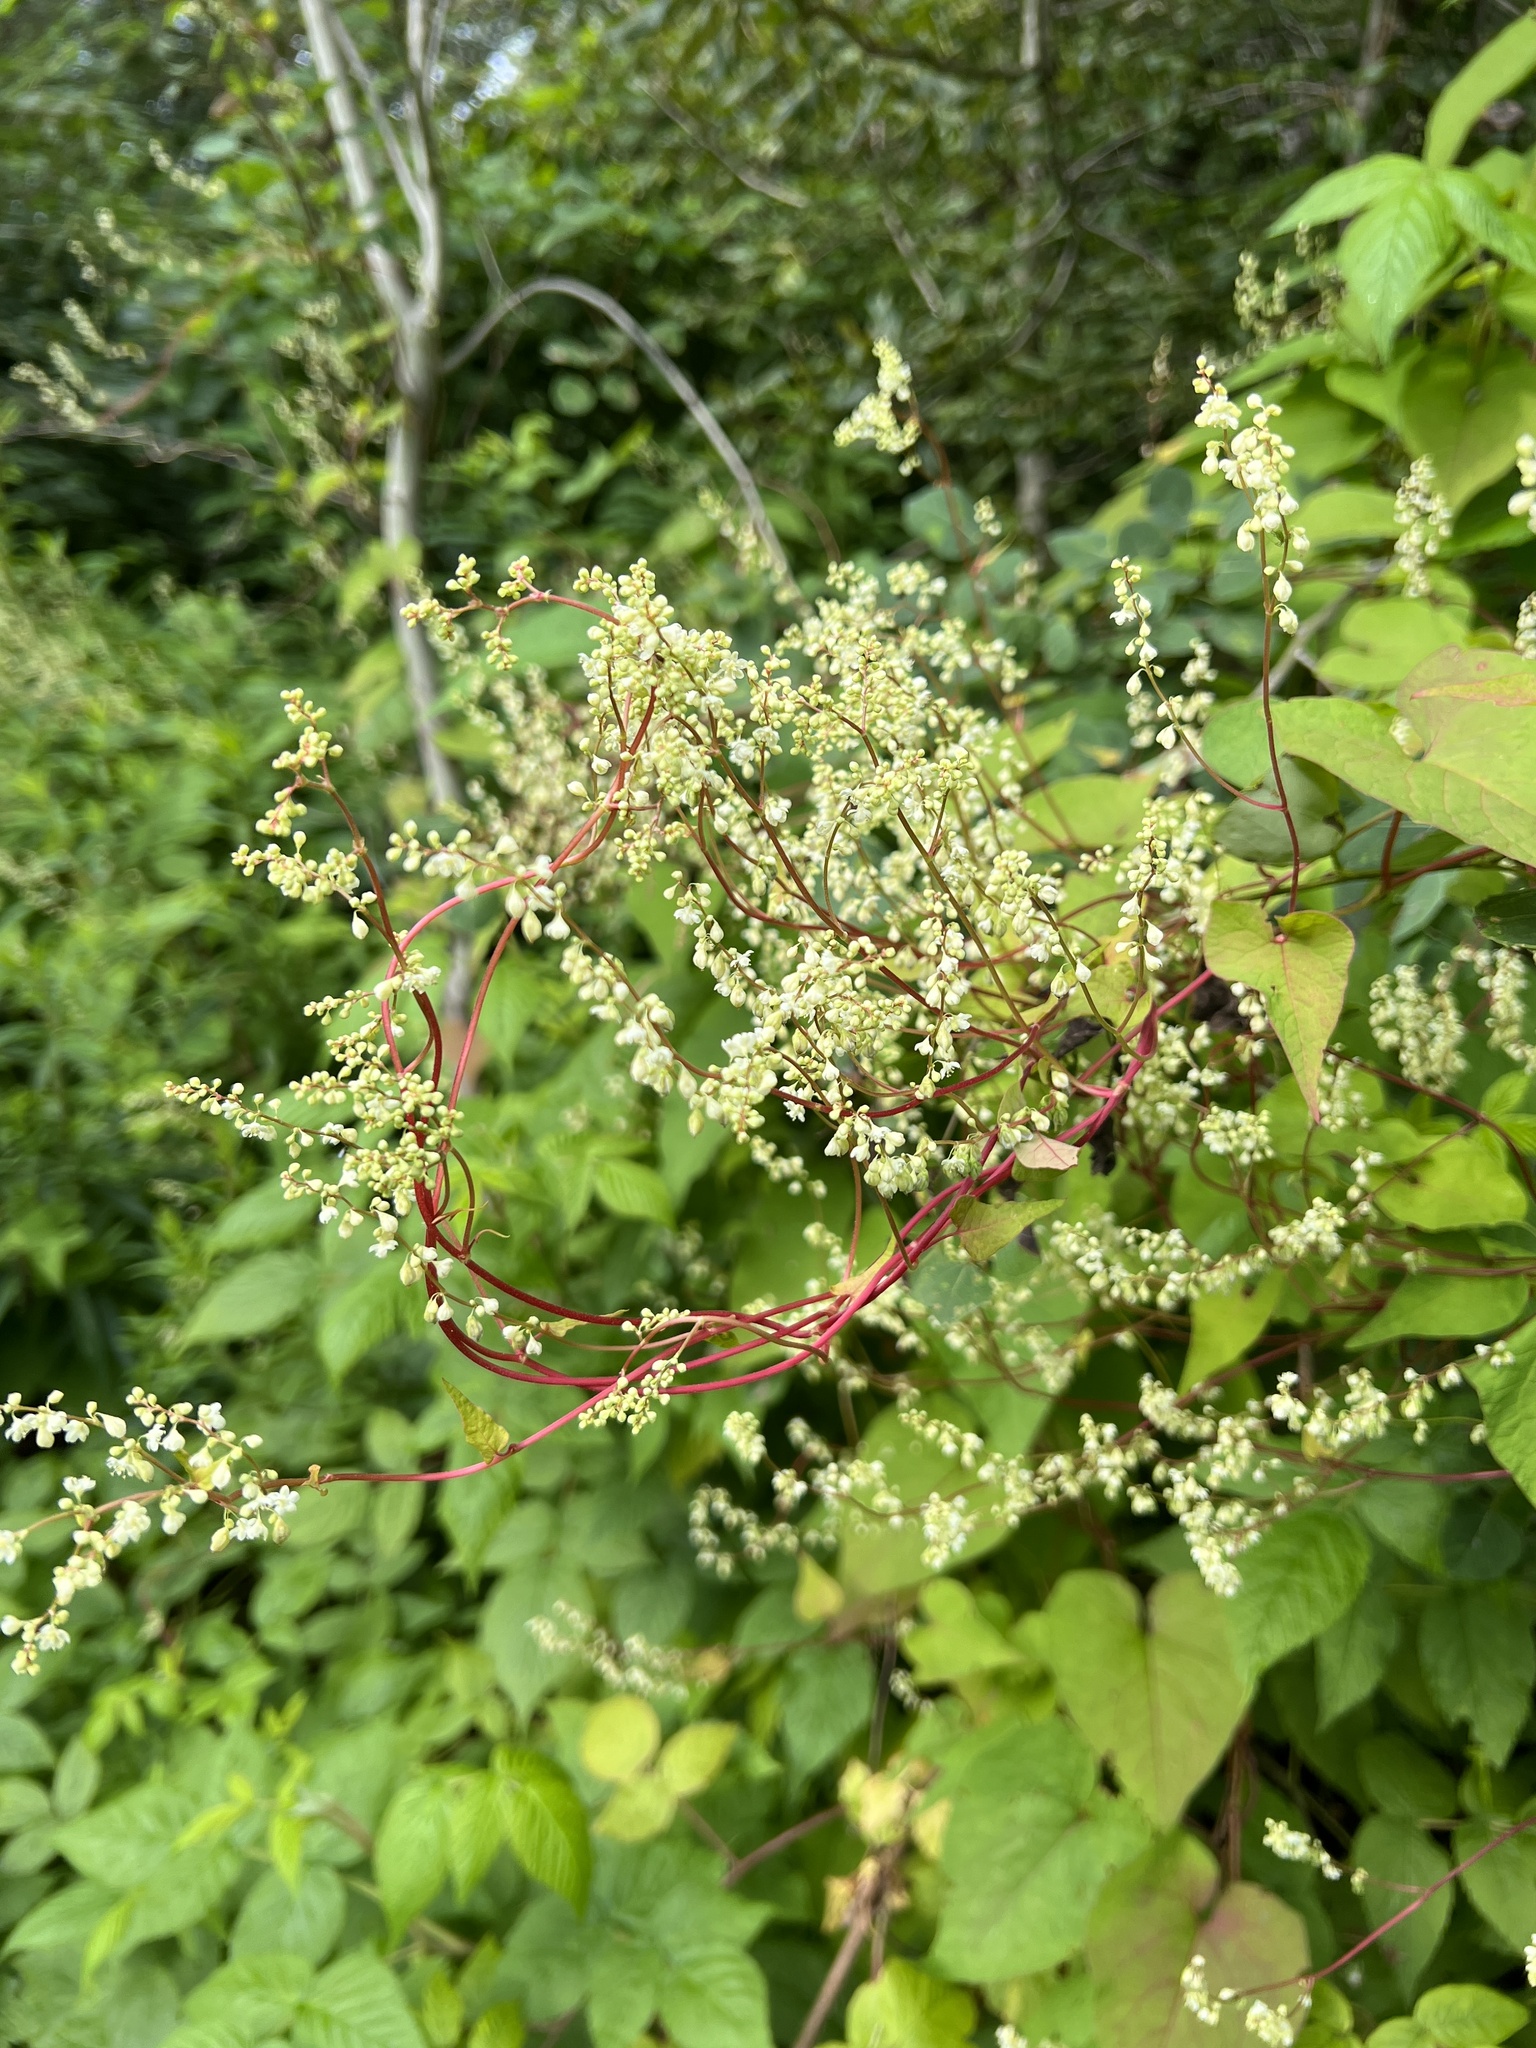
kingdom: Plantae
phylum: Tracheophyta
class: Magnoliopsida
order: Caryophyllales
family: Polygonaceae
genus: Parogonum
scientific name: Parogonum ciliinode
